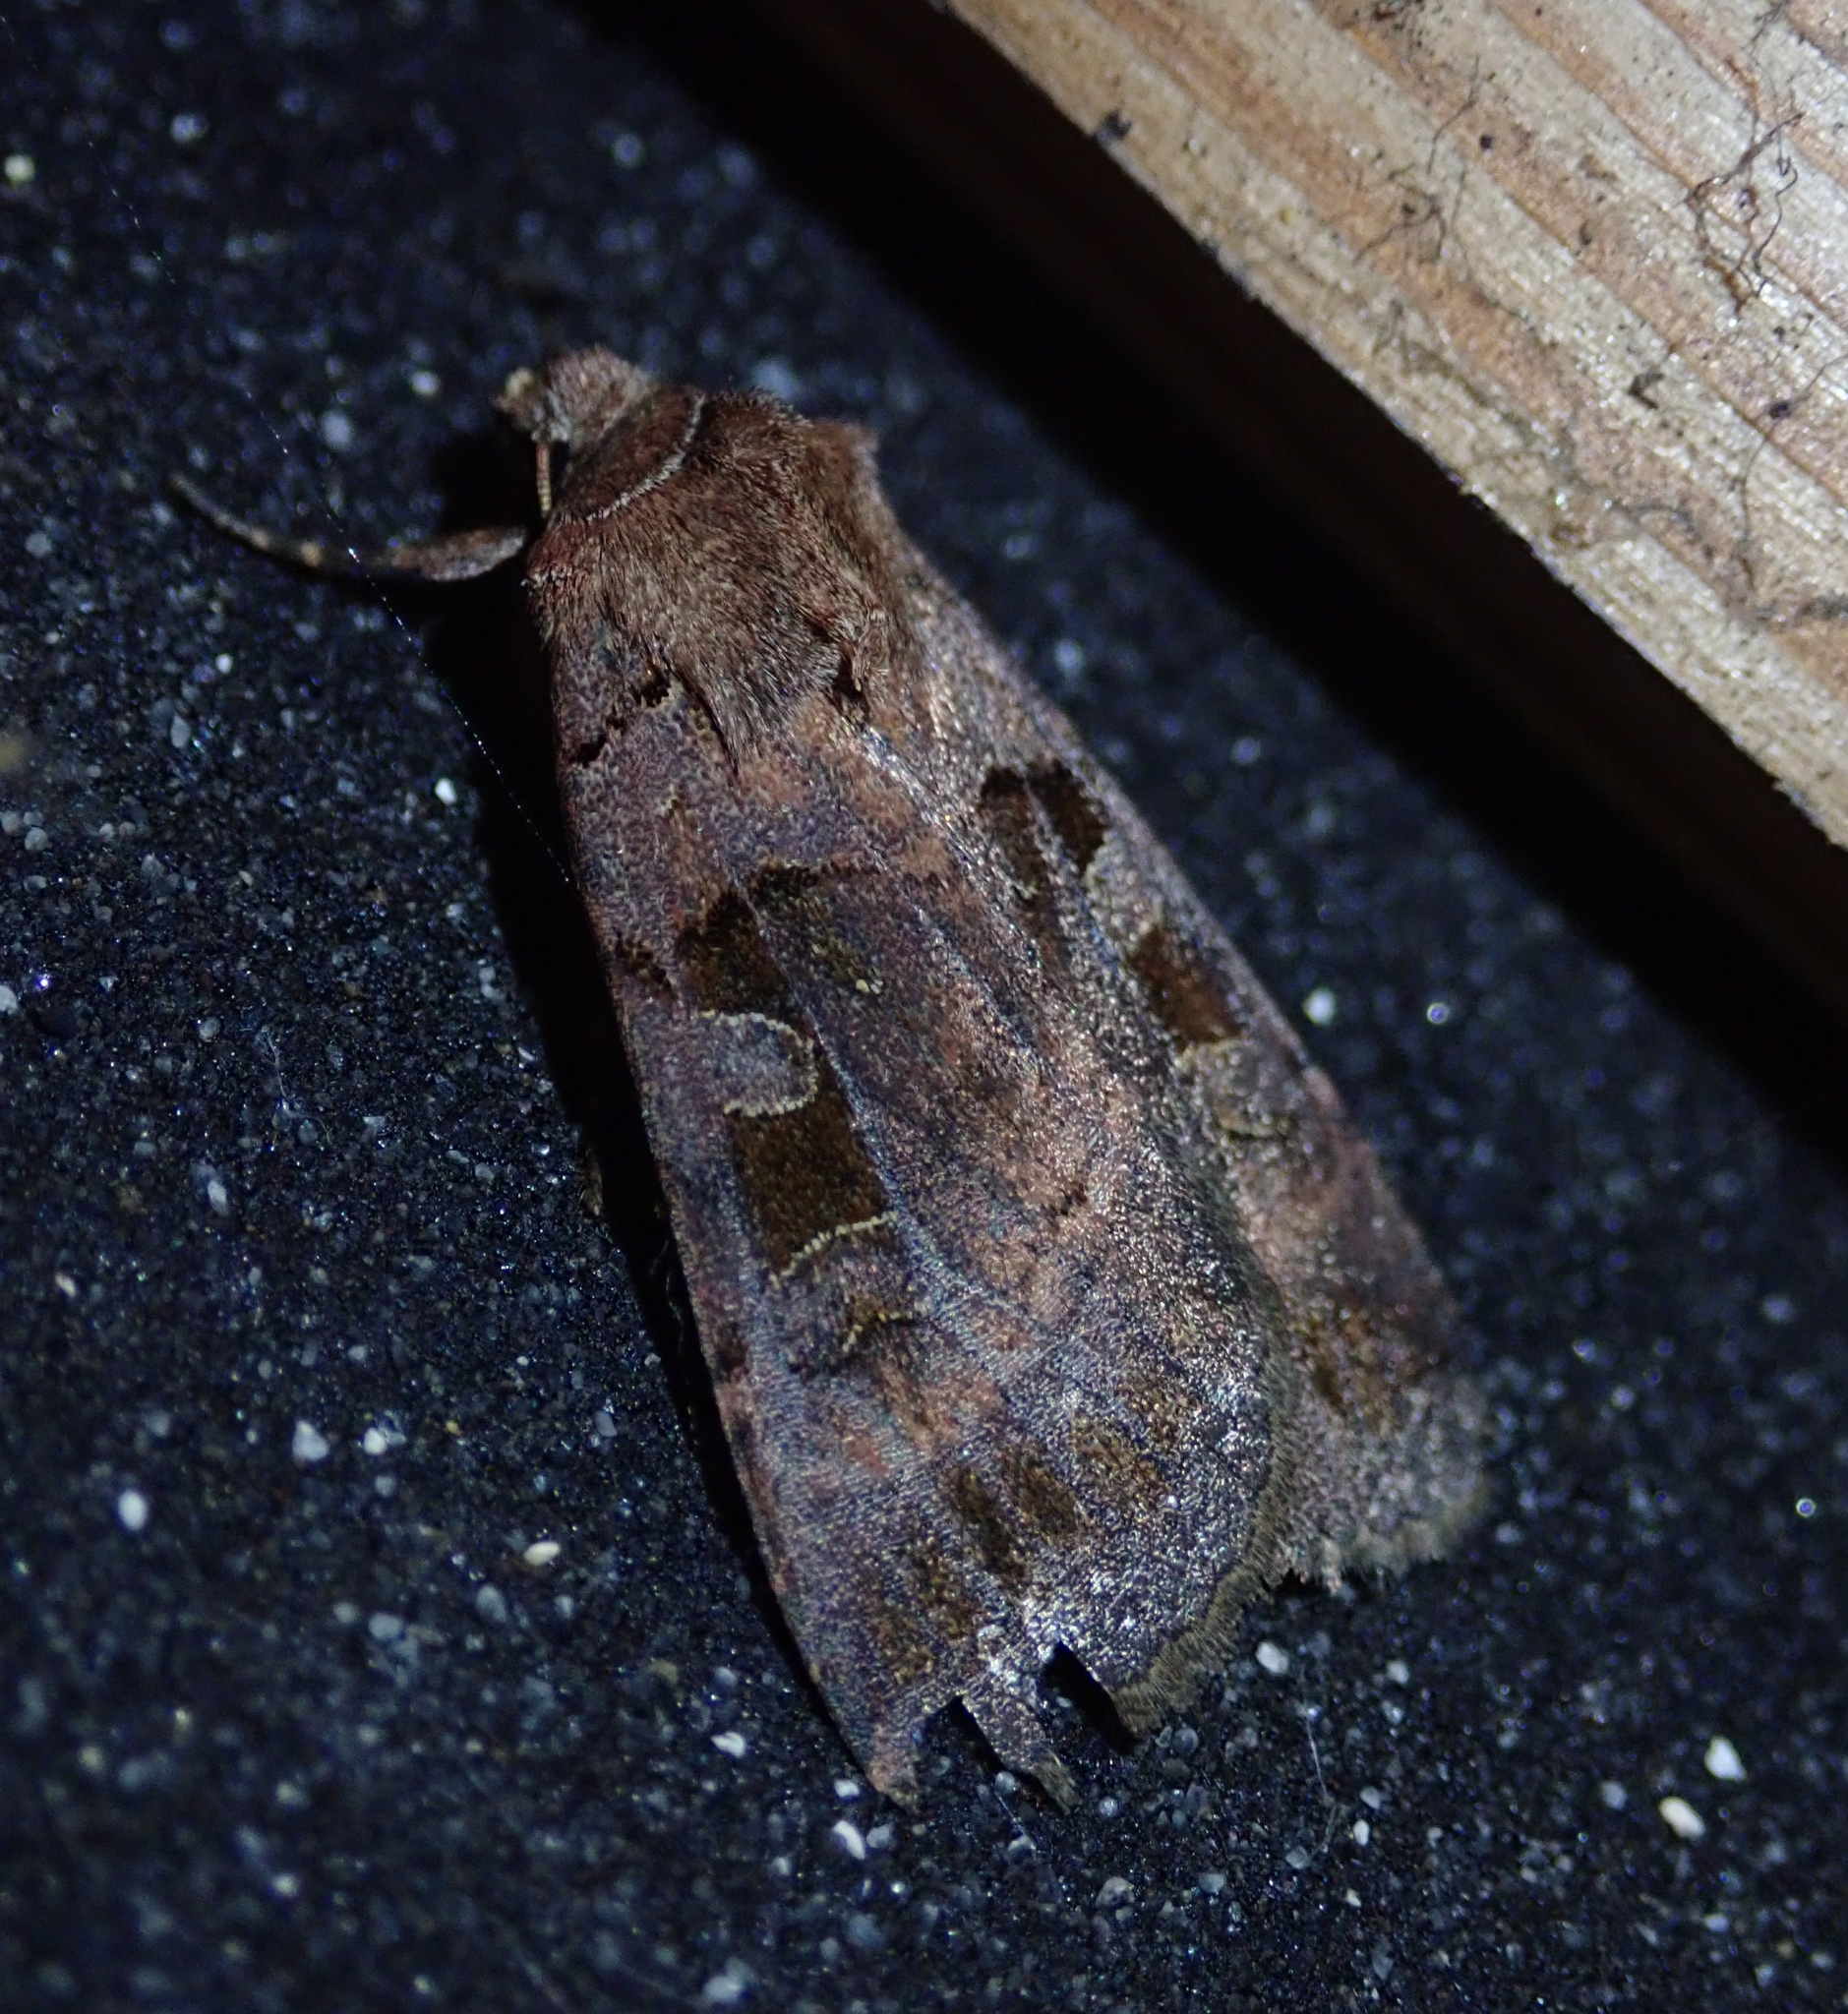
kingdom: Animalia
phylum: Arthropoda
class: Insecta
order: Lepidoptera
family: Noctuidae
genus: Xestia
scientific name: Xestia stigmatica
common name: Square-spotted clay
